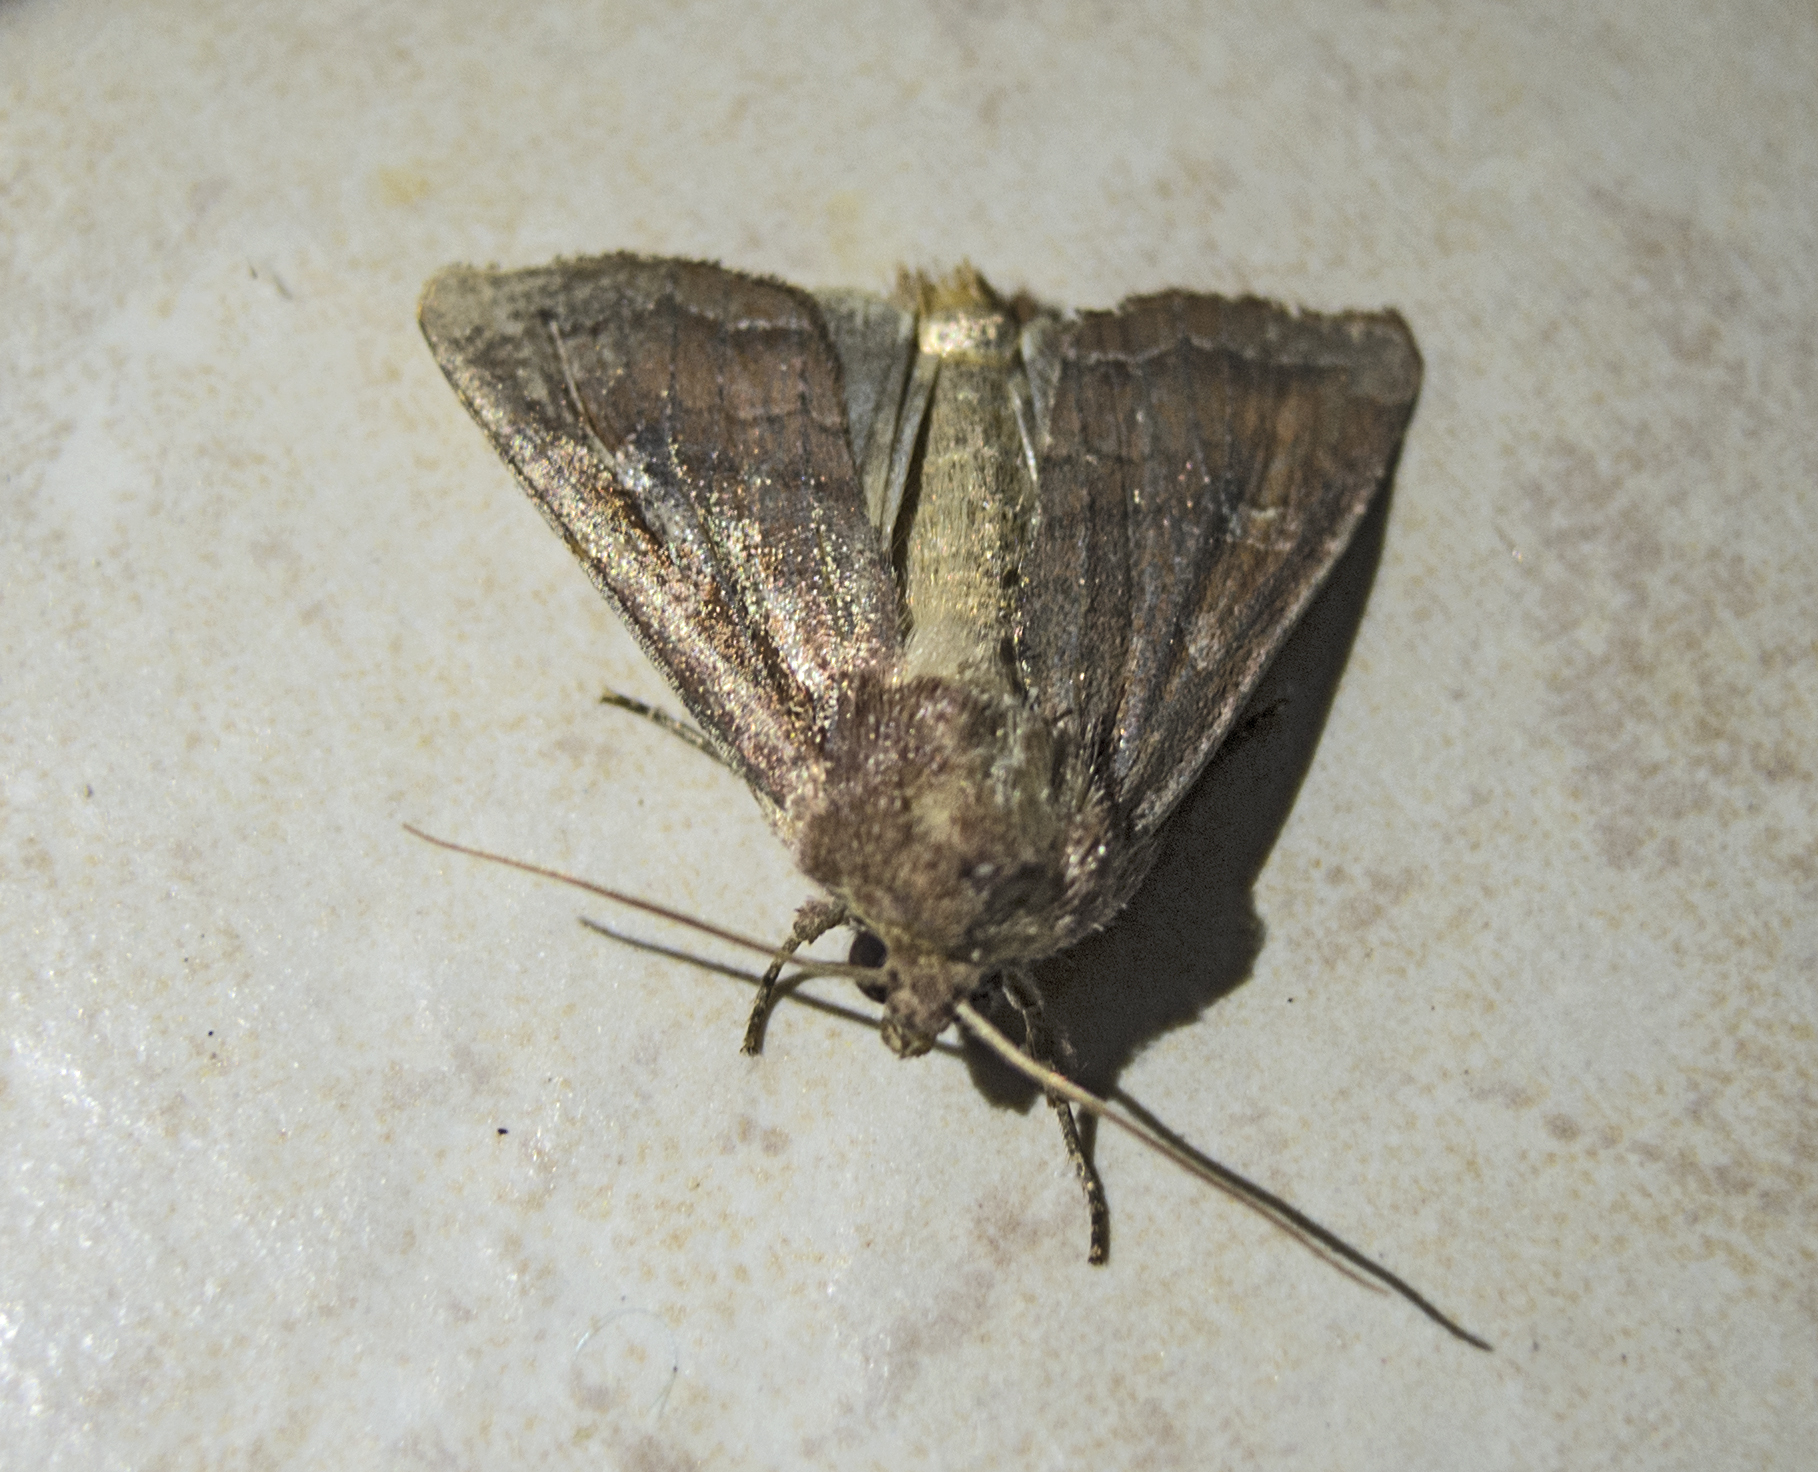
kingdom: Animalia
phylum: Arthropoda
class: Insecta
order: Lepidoptera
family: Noctuidae
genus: Lacanobia
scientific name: Lacanobia splendens
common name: Splendid brocade
